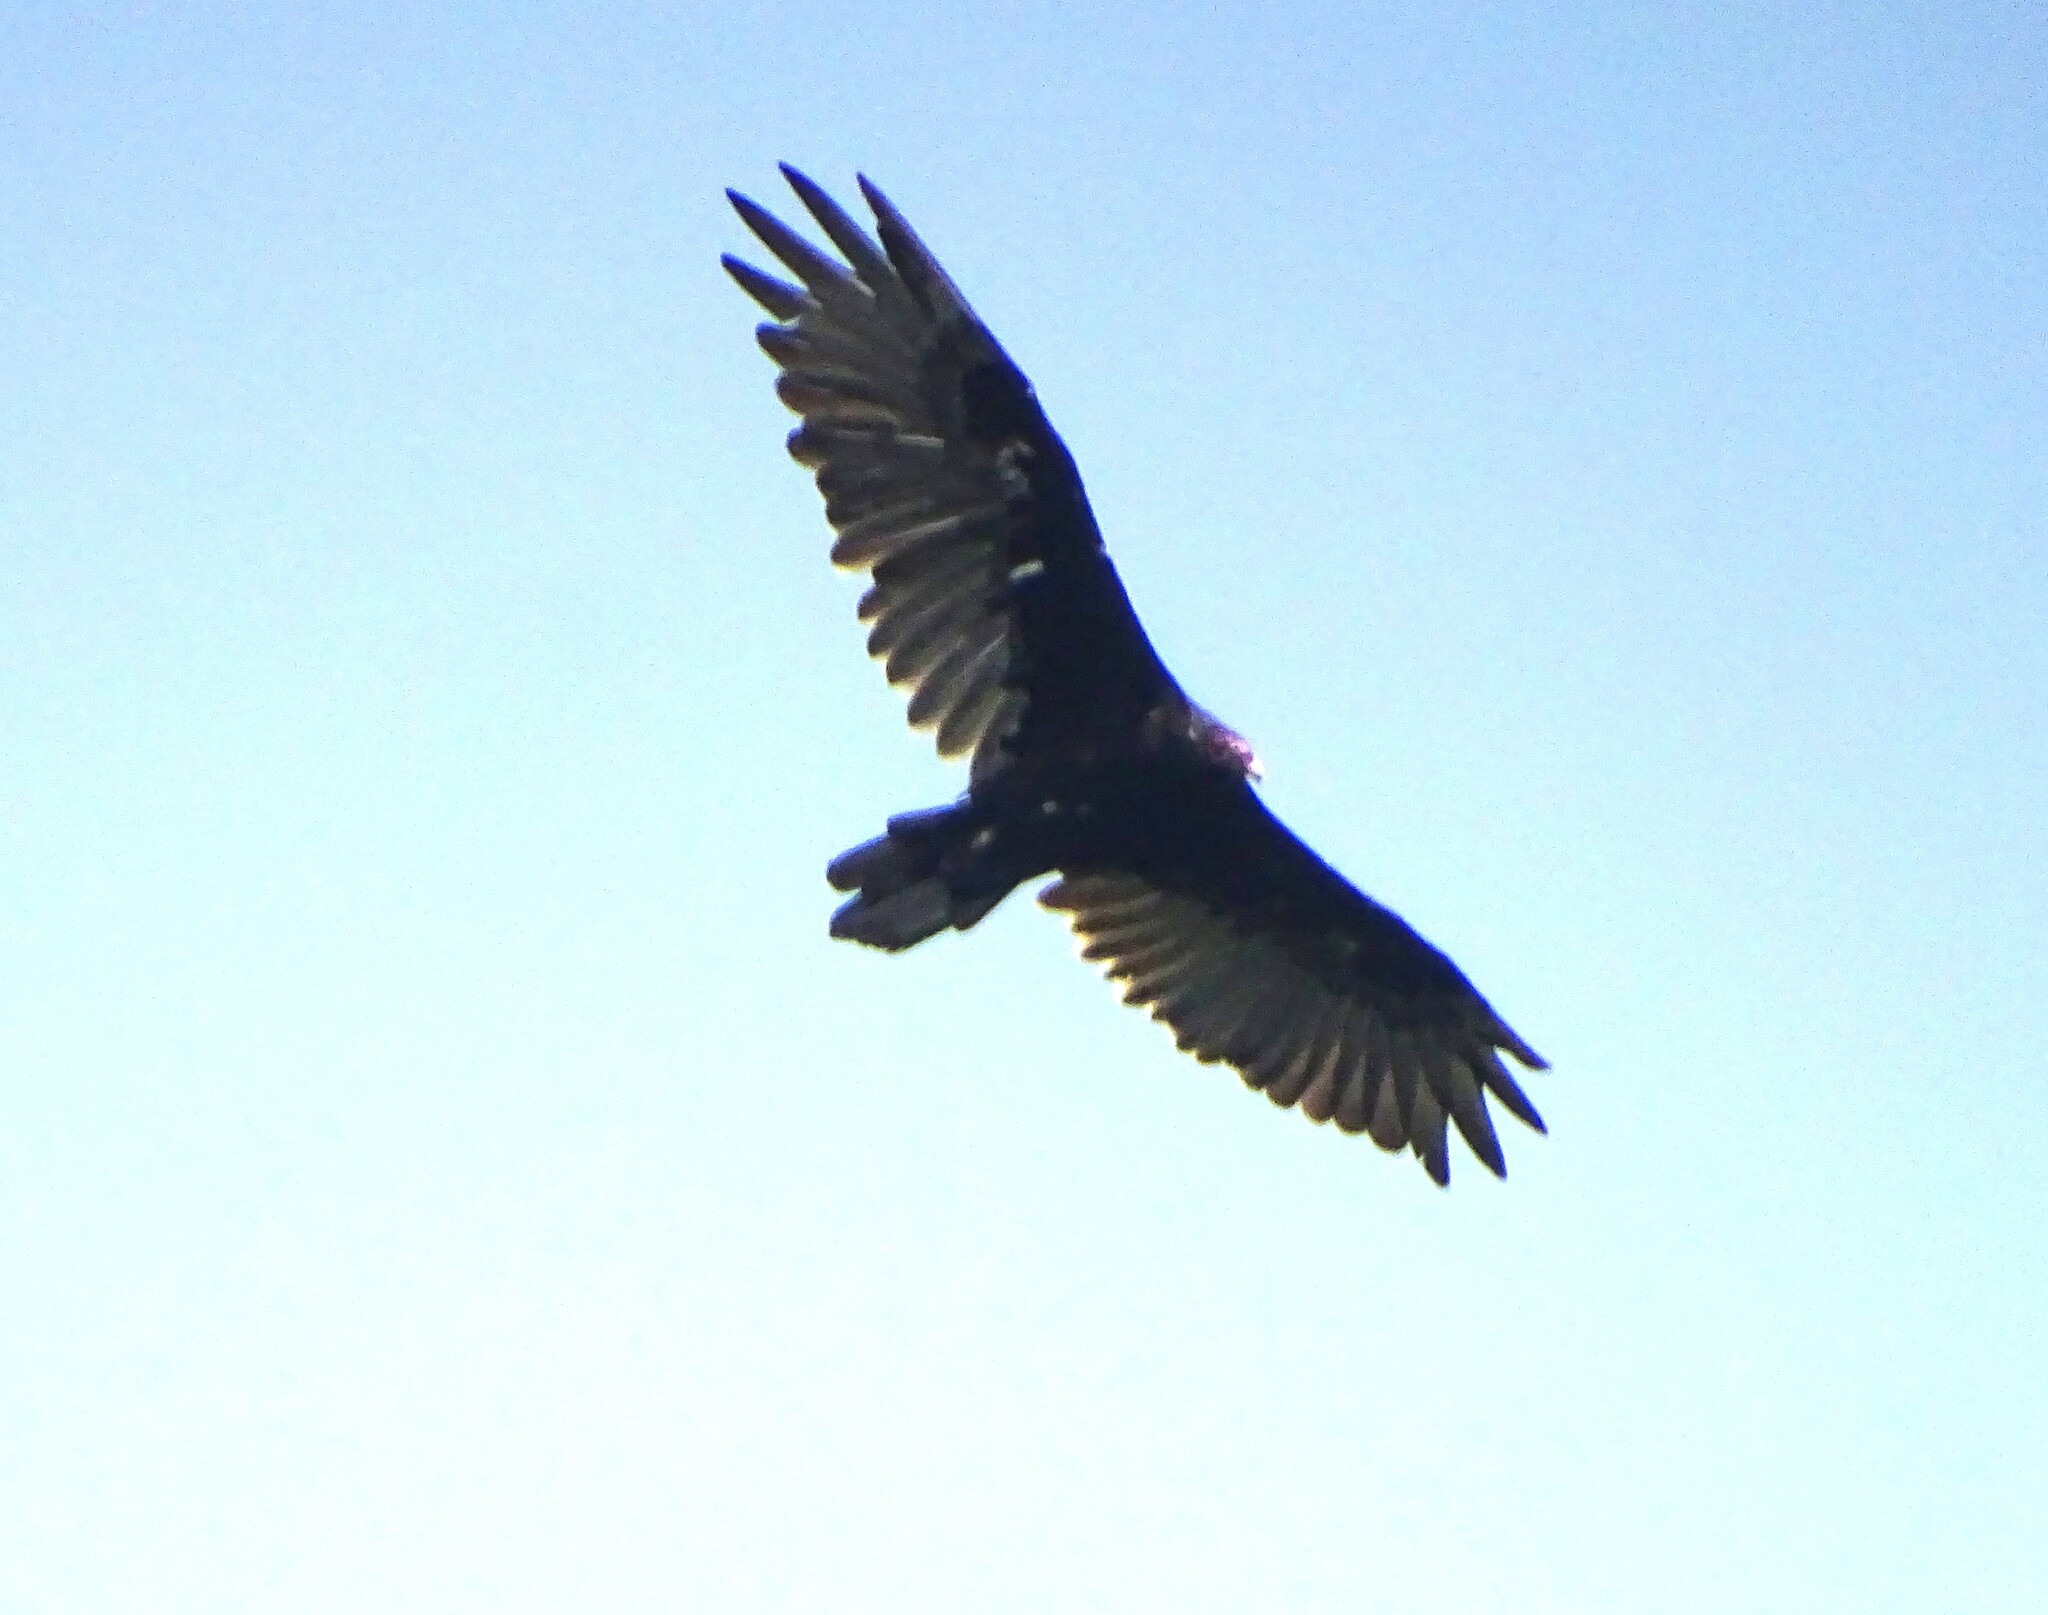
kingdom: Animalia
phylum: Chordata
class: Aves
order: Accipitriformes
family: Cathartidae
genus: Cathartes
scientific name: Cathartes aura
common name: Turkey vulture
